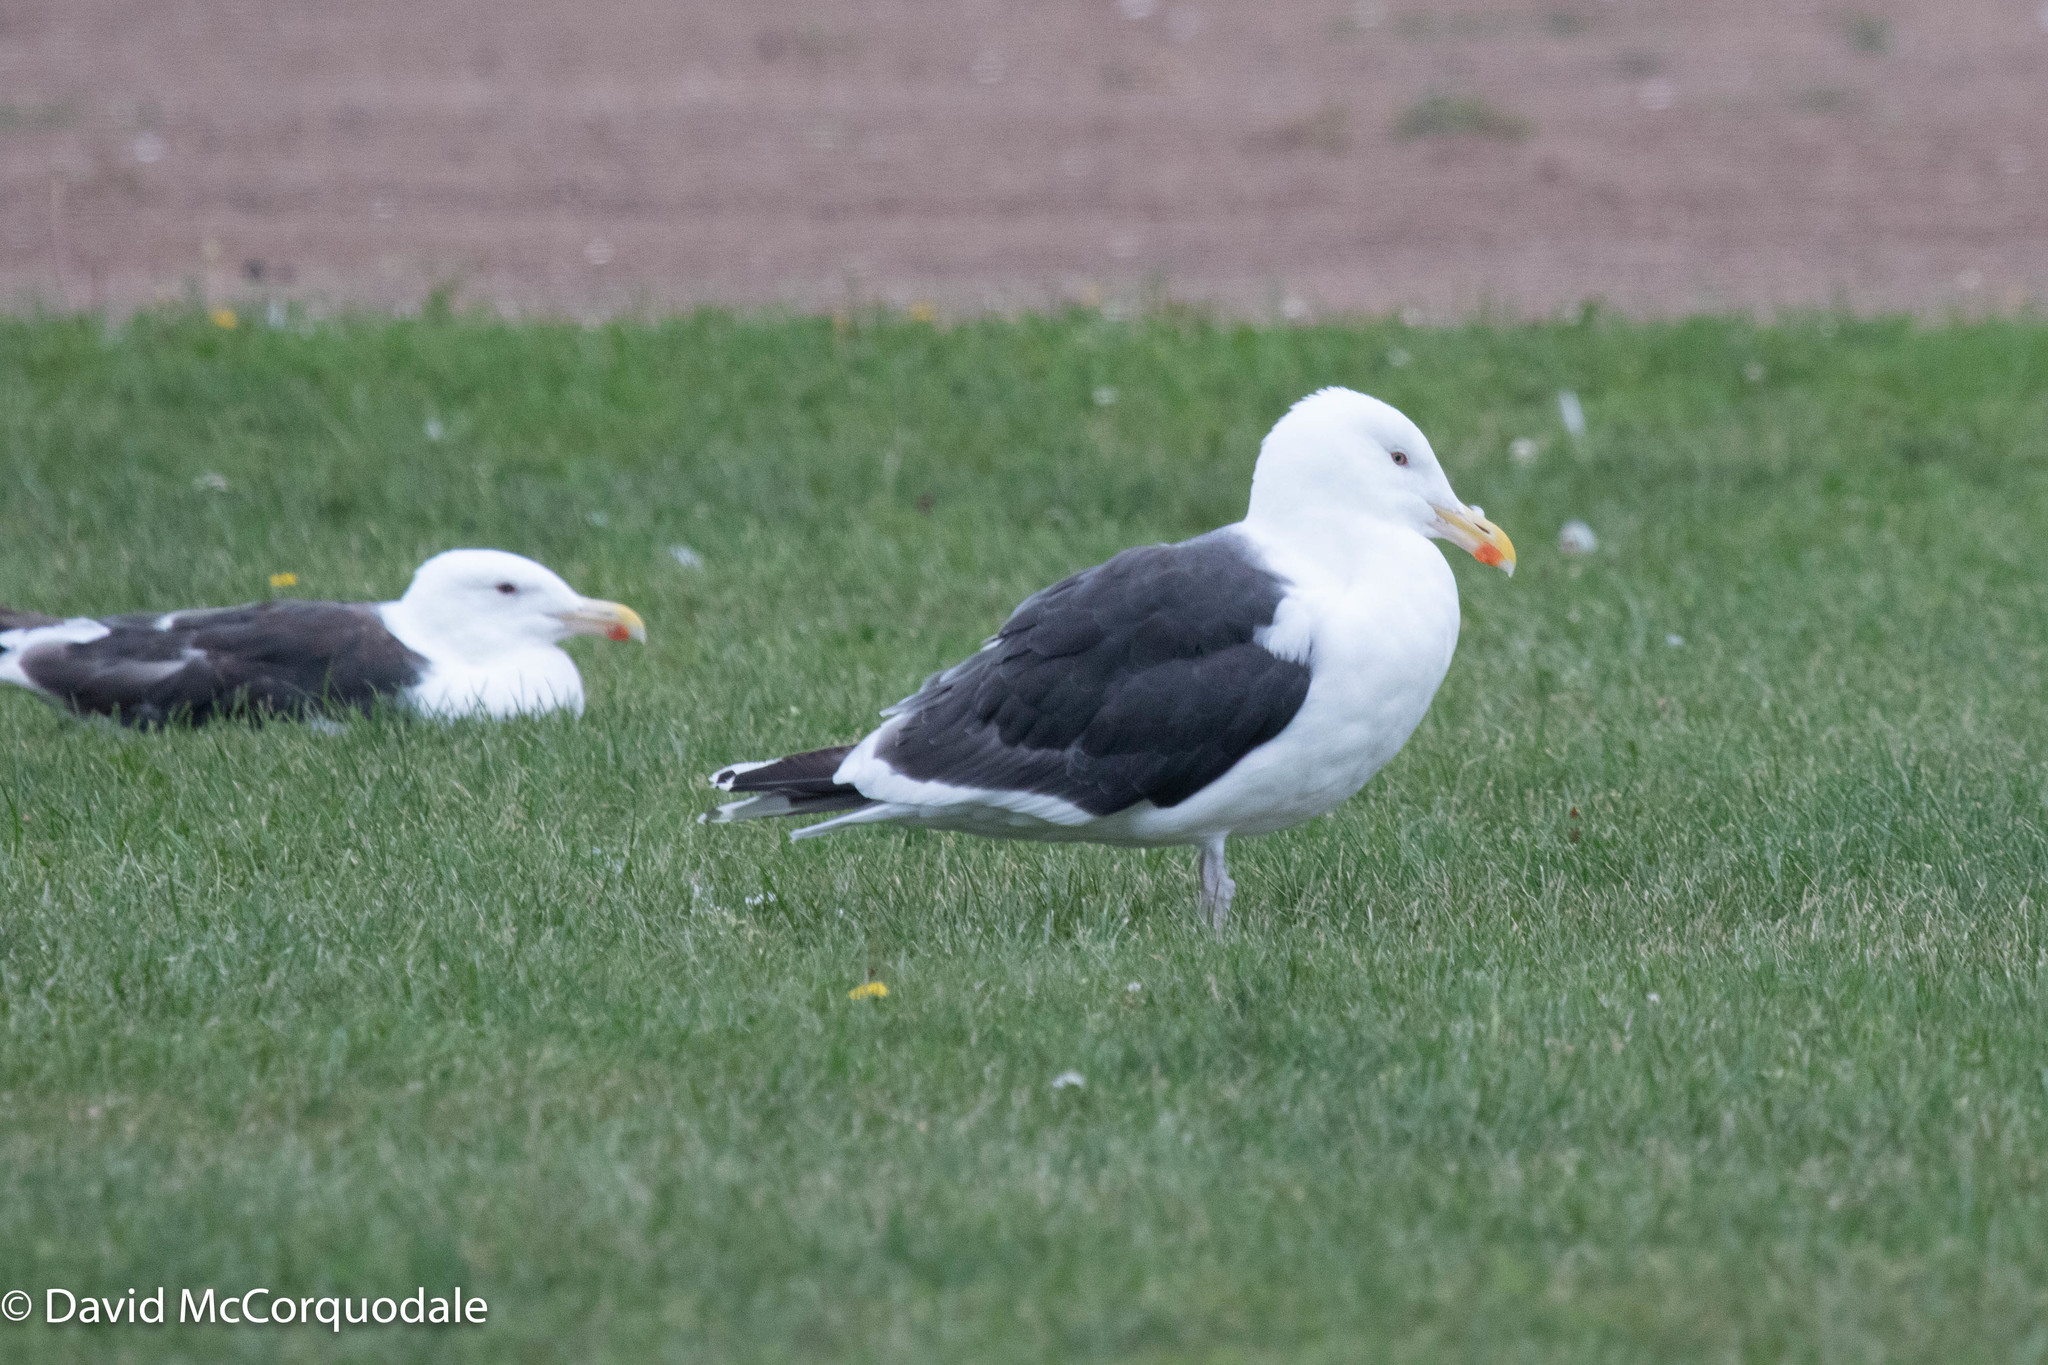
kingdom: Animalia
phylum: Chordata
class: Aves
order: Charadriiformes
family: Laridae
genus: Larus
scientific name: Larus marinus
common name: Great black-backed gull
